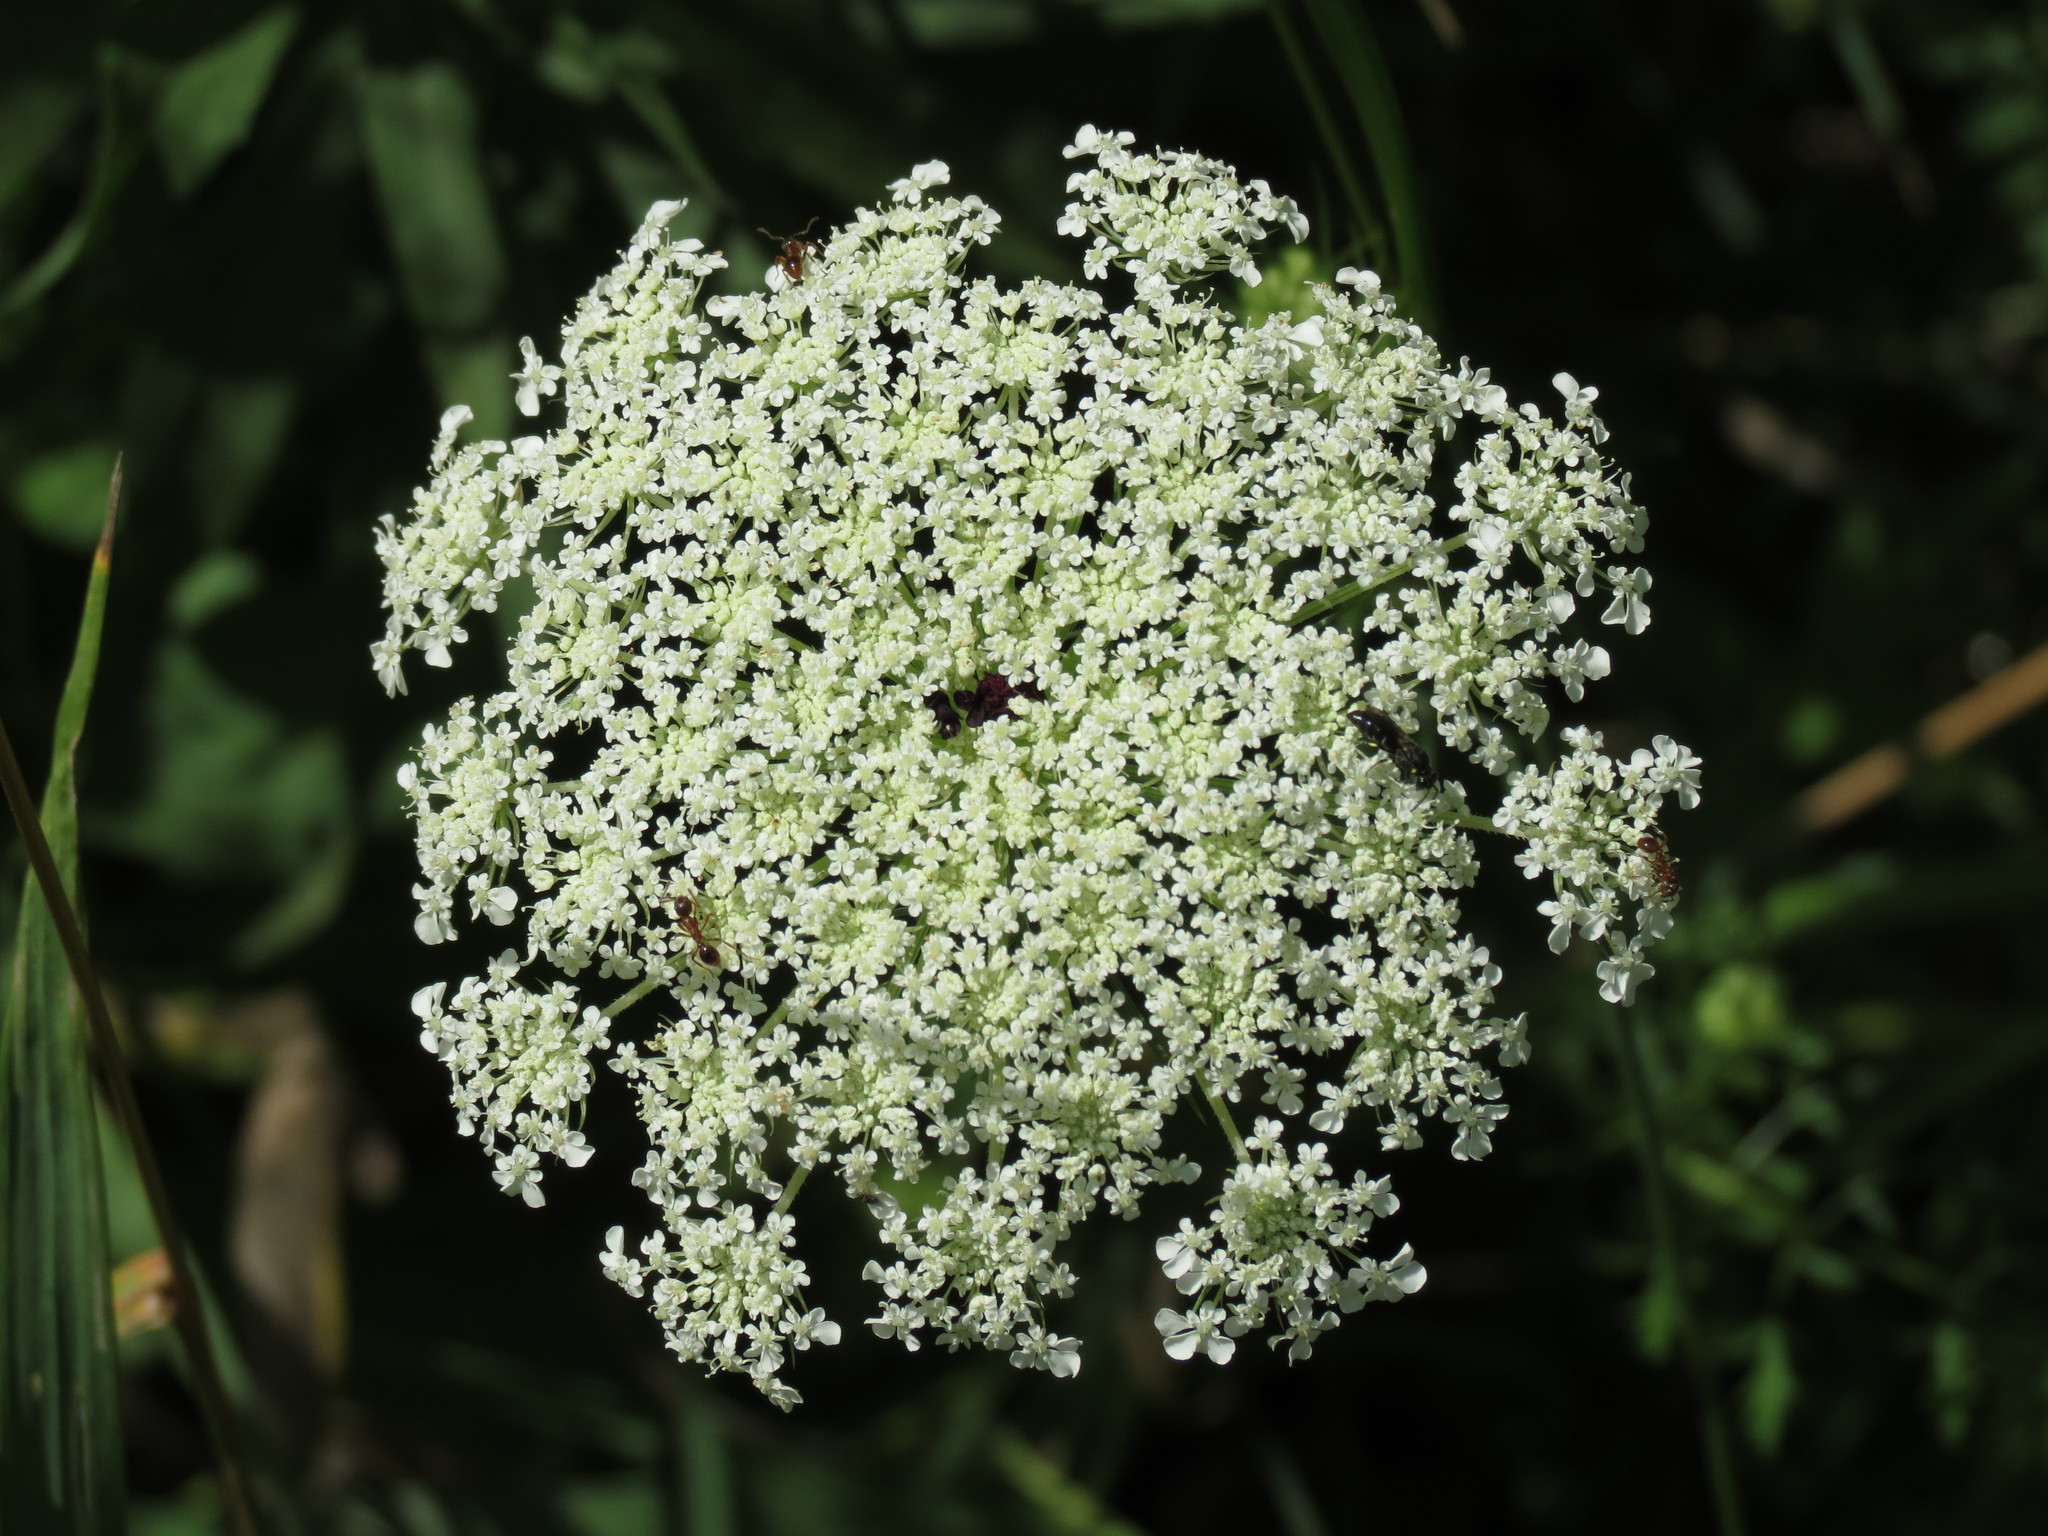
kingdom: Plantae
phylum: Tracheophyta
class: Magnoliopsida
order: Apiales
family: Apiaceae
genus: Daucus
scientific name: Daucus carota
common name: Wild carrot
